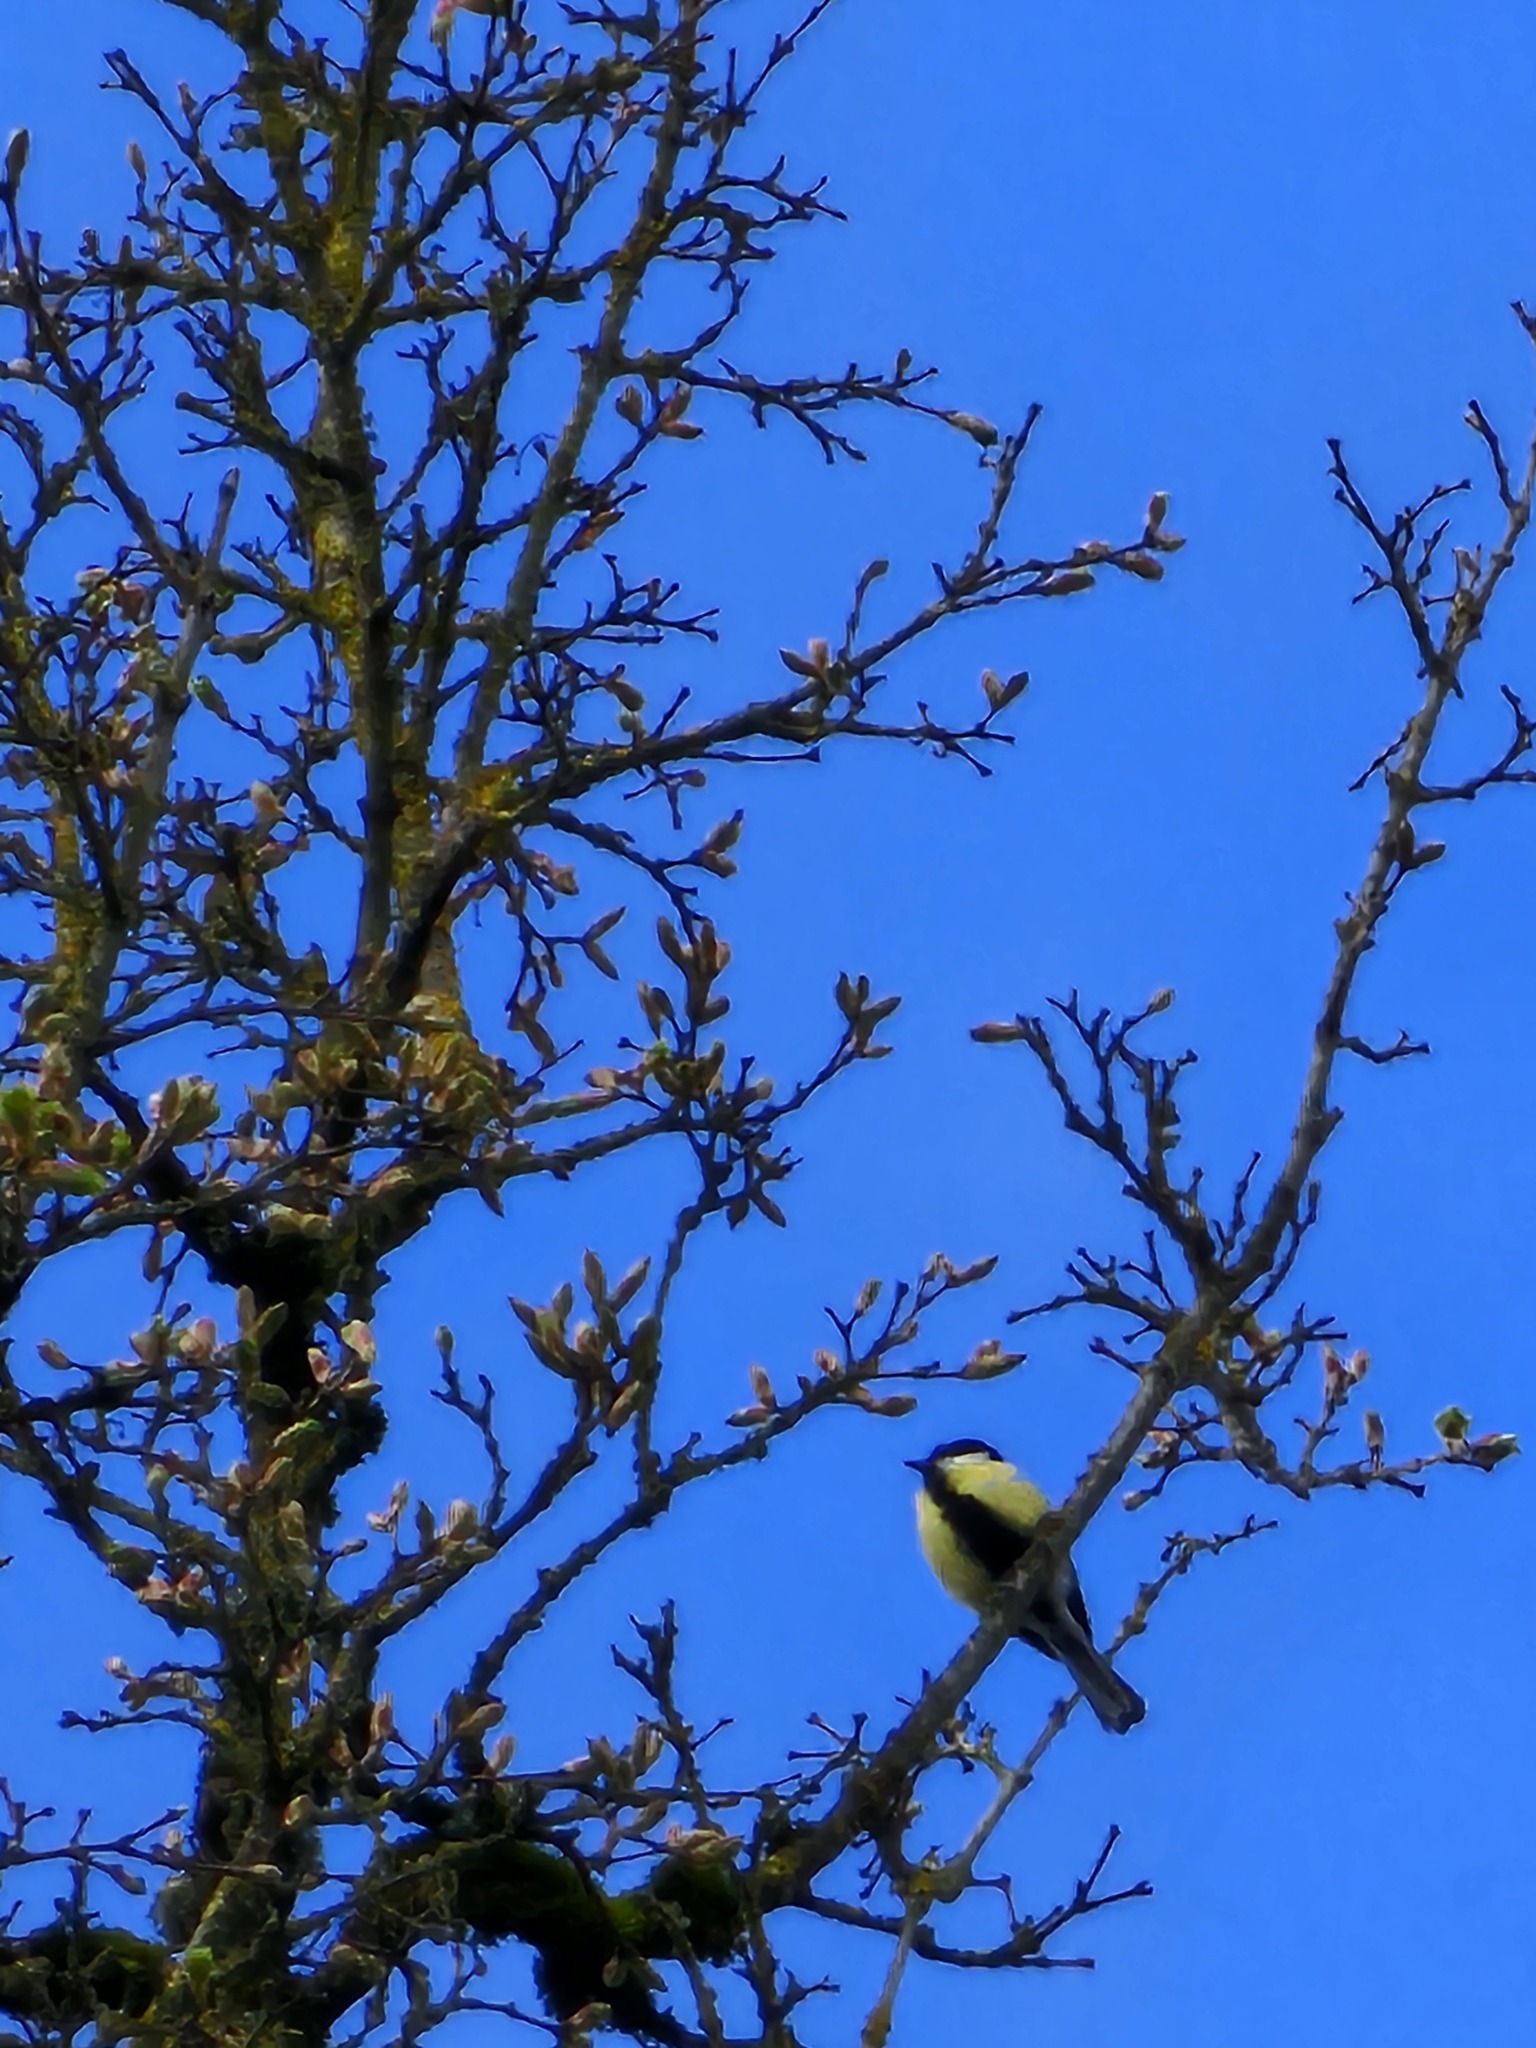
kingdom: Animalia
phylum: Chordata
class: Aves
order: Passeriformes
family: Paridae
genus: Parus
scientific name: Parus major
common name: Great tit
